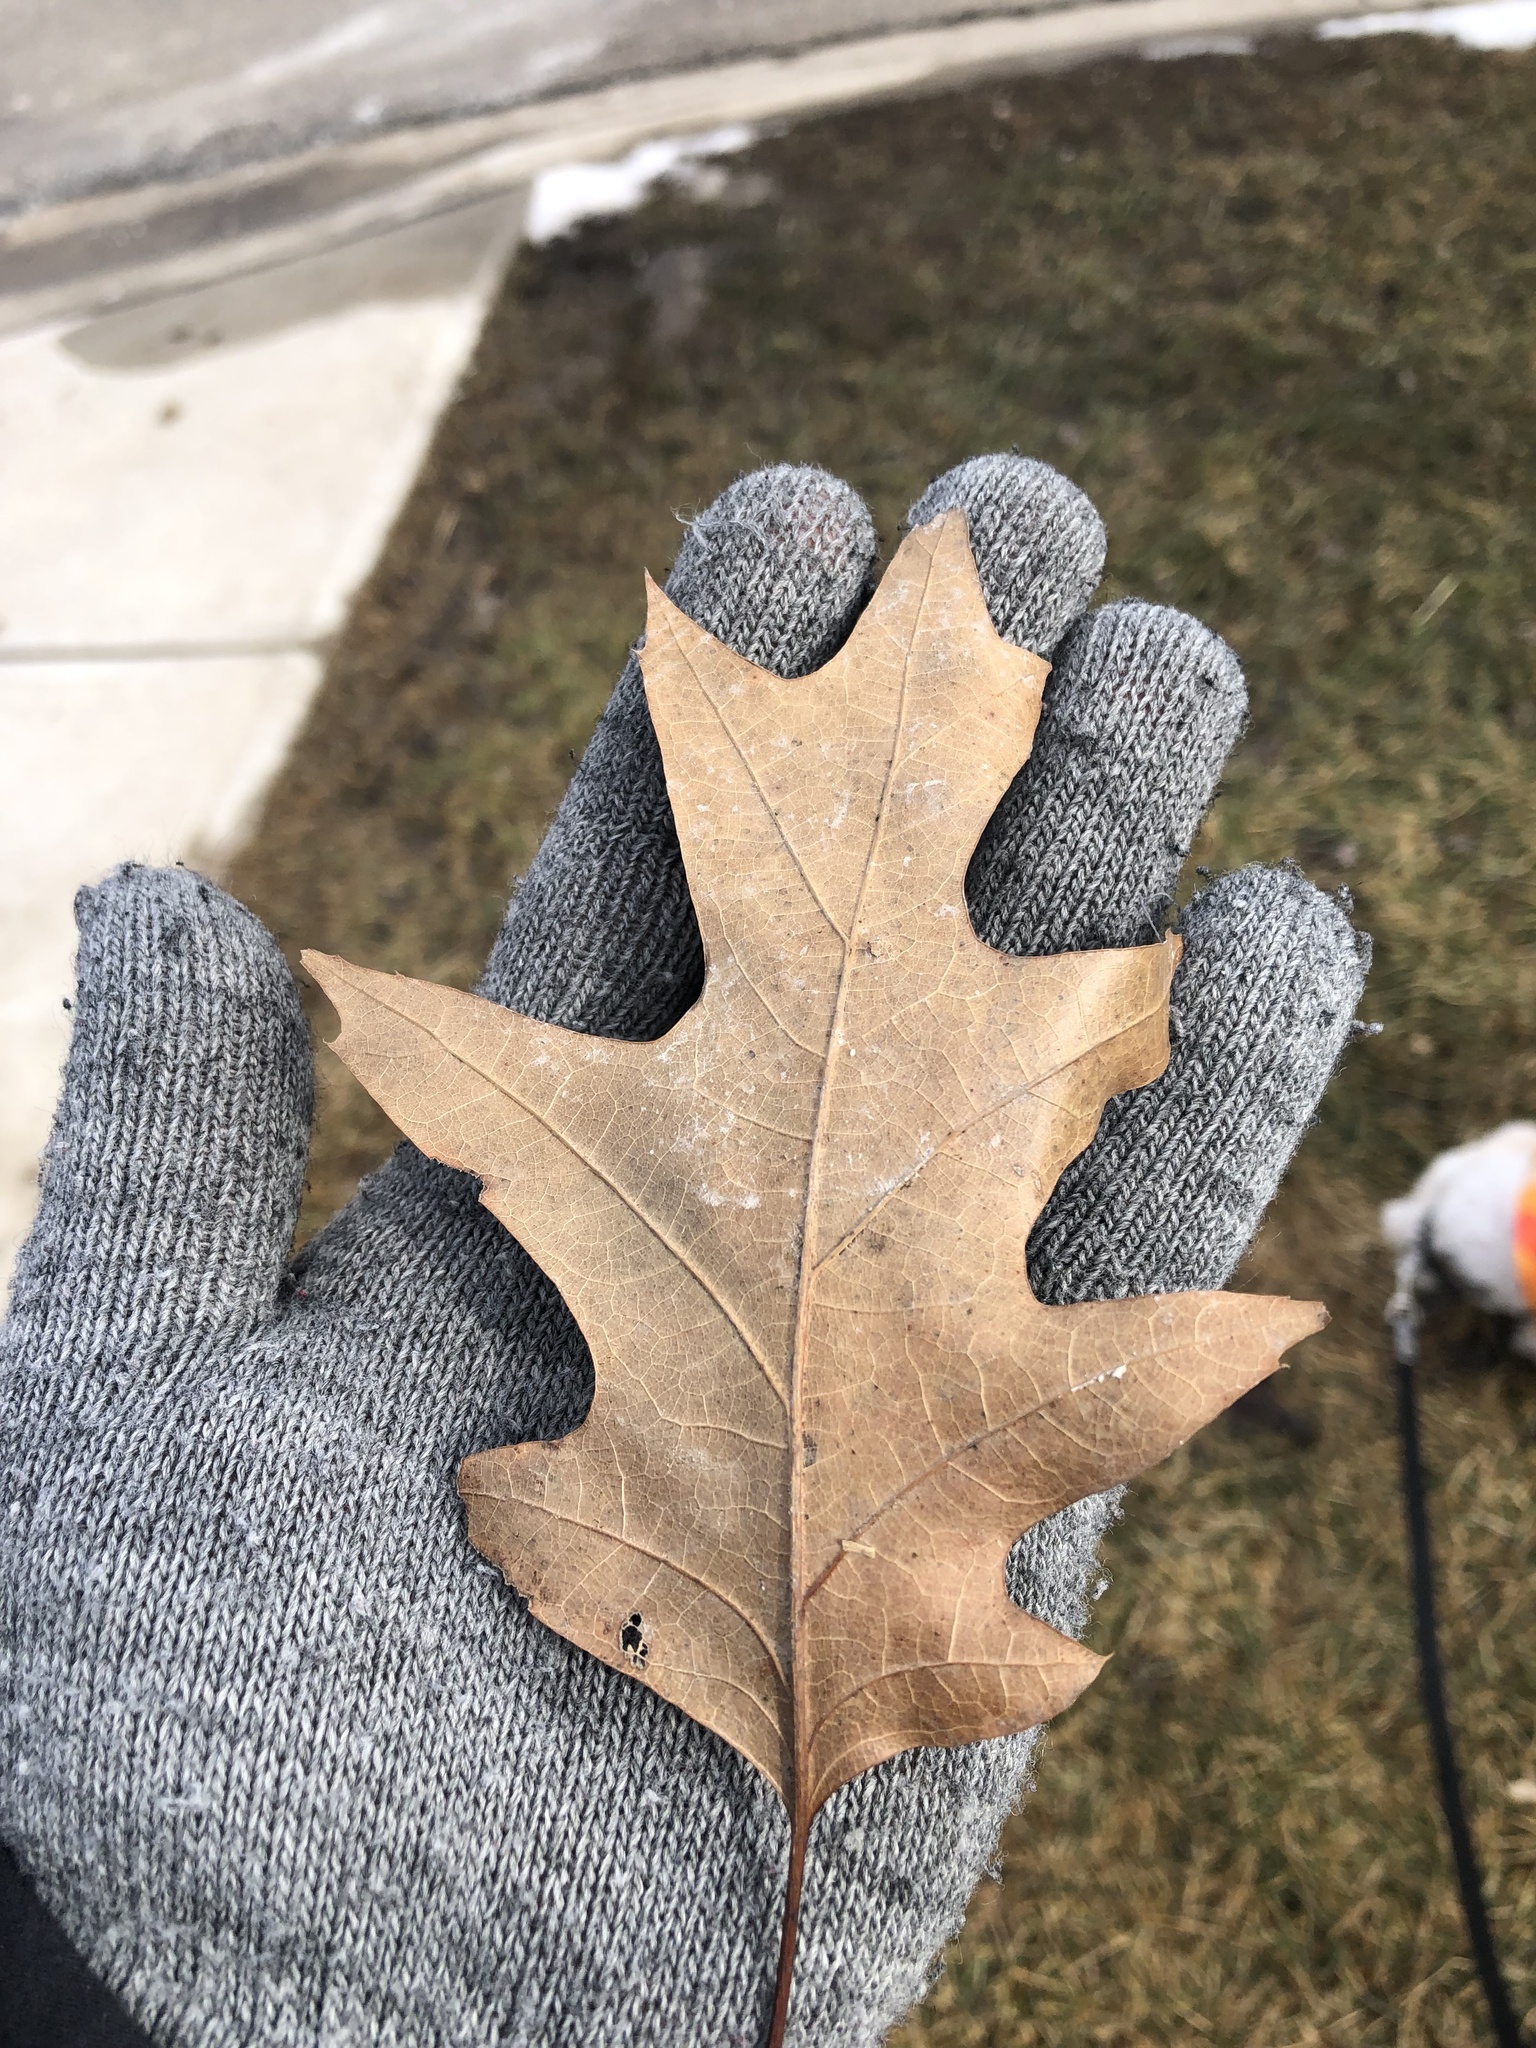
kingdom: Plantae
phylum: Tracheophyta
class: Magnoliopsida
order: Fagales
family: Fagaceae
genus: Quercus
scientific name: Quercus rubra
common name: Red oak
